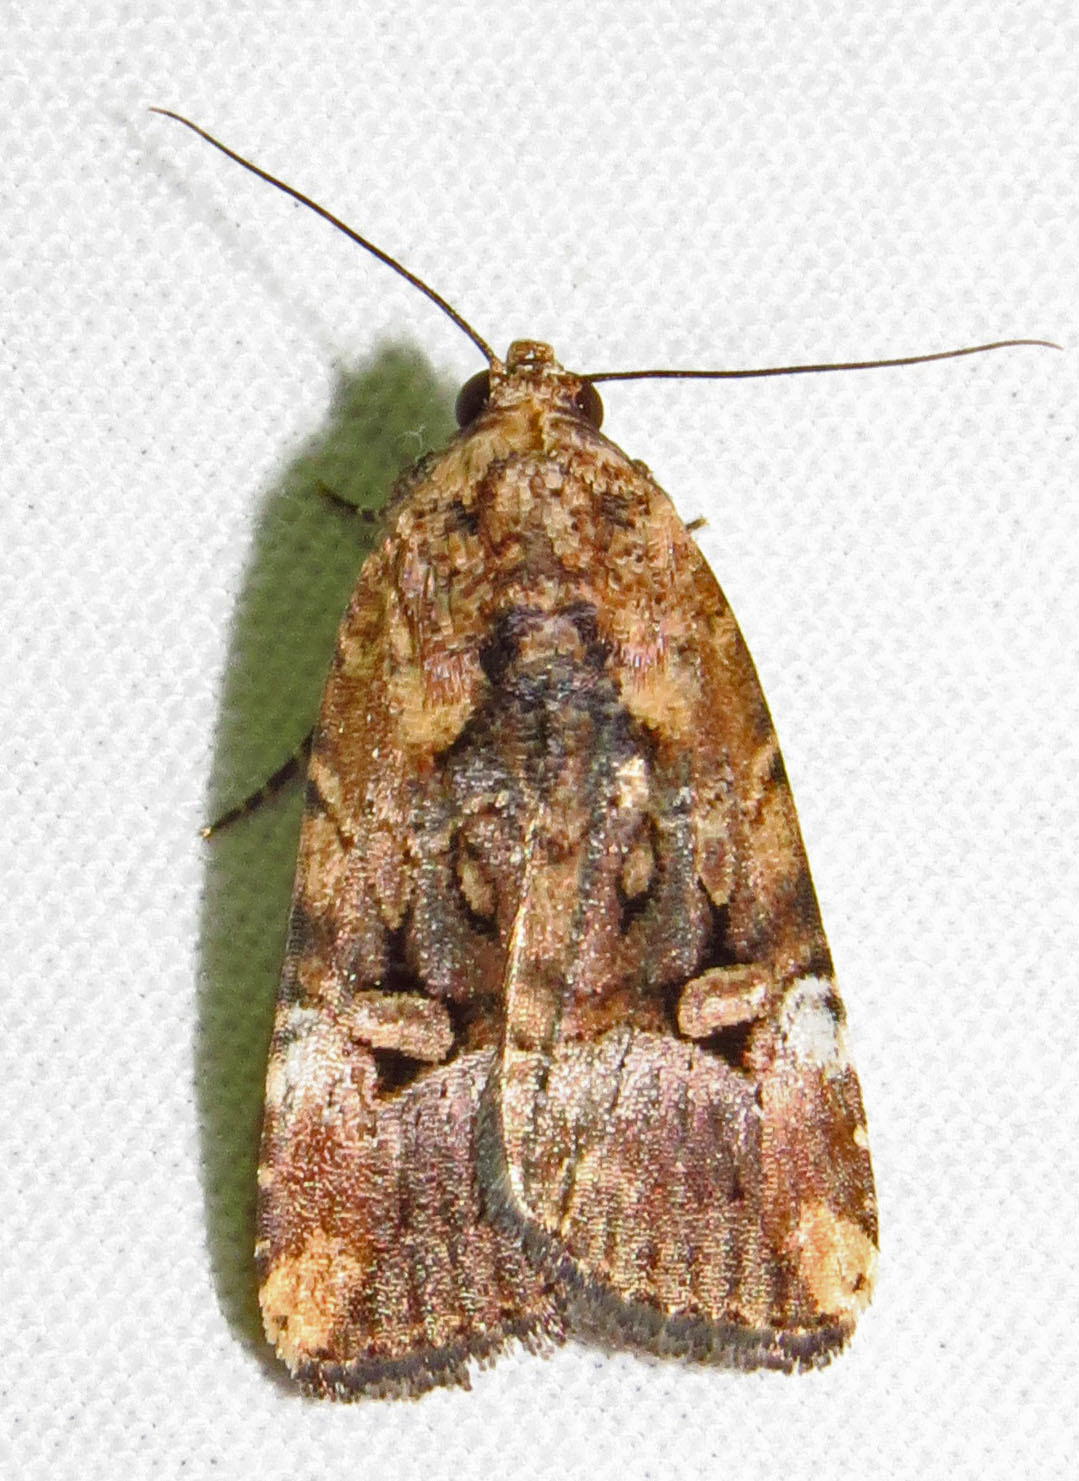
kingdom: Animalia
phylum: Arthropoda
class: Insecta
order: Lepidoptera
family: Noctuidae
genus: Elaphria
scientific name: Elaphria chalcedonia
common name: Chalcedony midget
